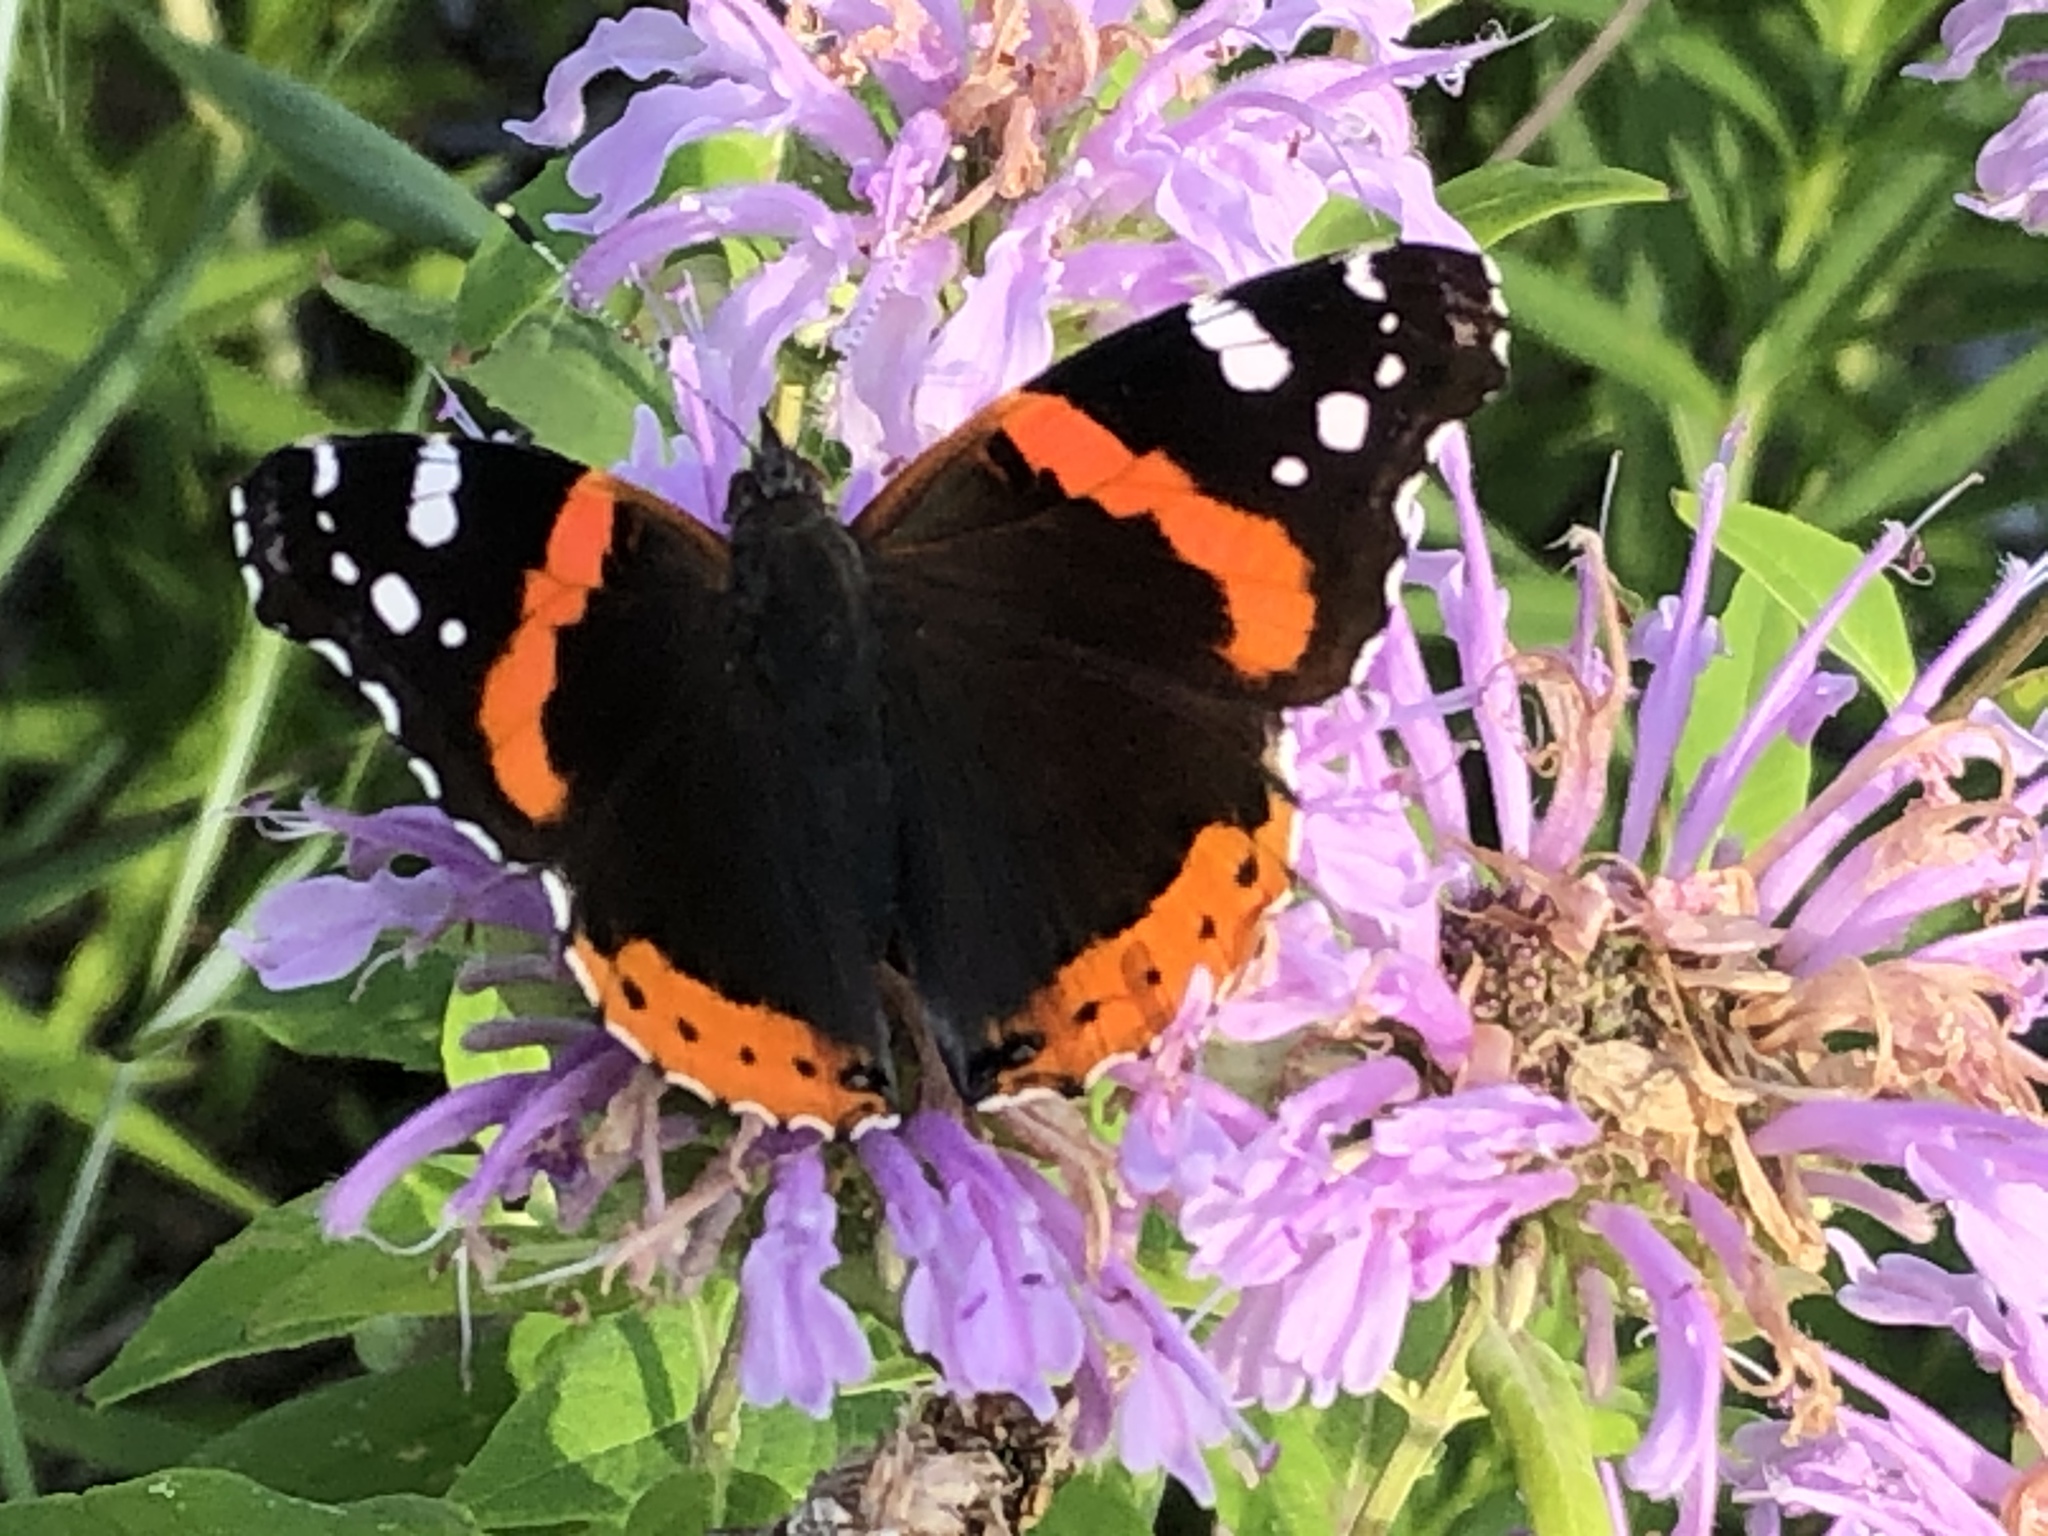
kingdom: Animalia
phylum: Arthropoda
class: Insecta
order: Lepidoptera
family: Nymphalidae
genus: Vanessa
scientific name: Vanessa atalanta
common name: Red admiral
